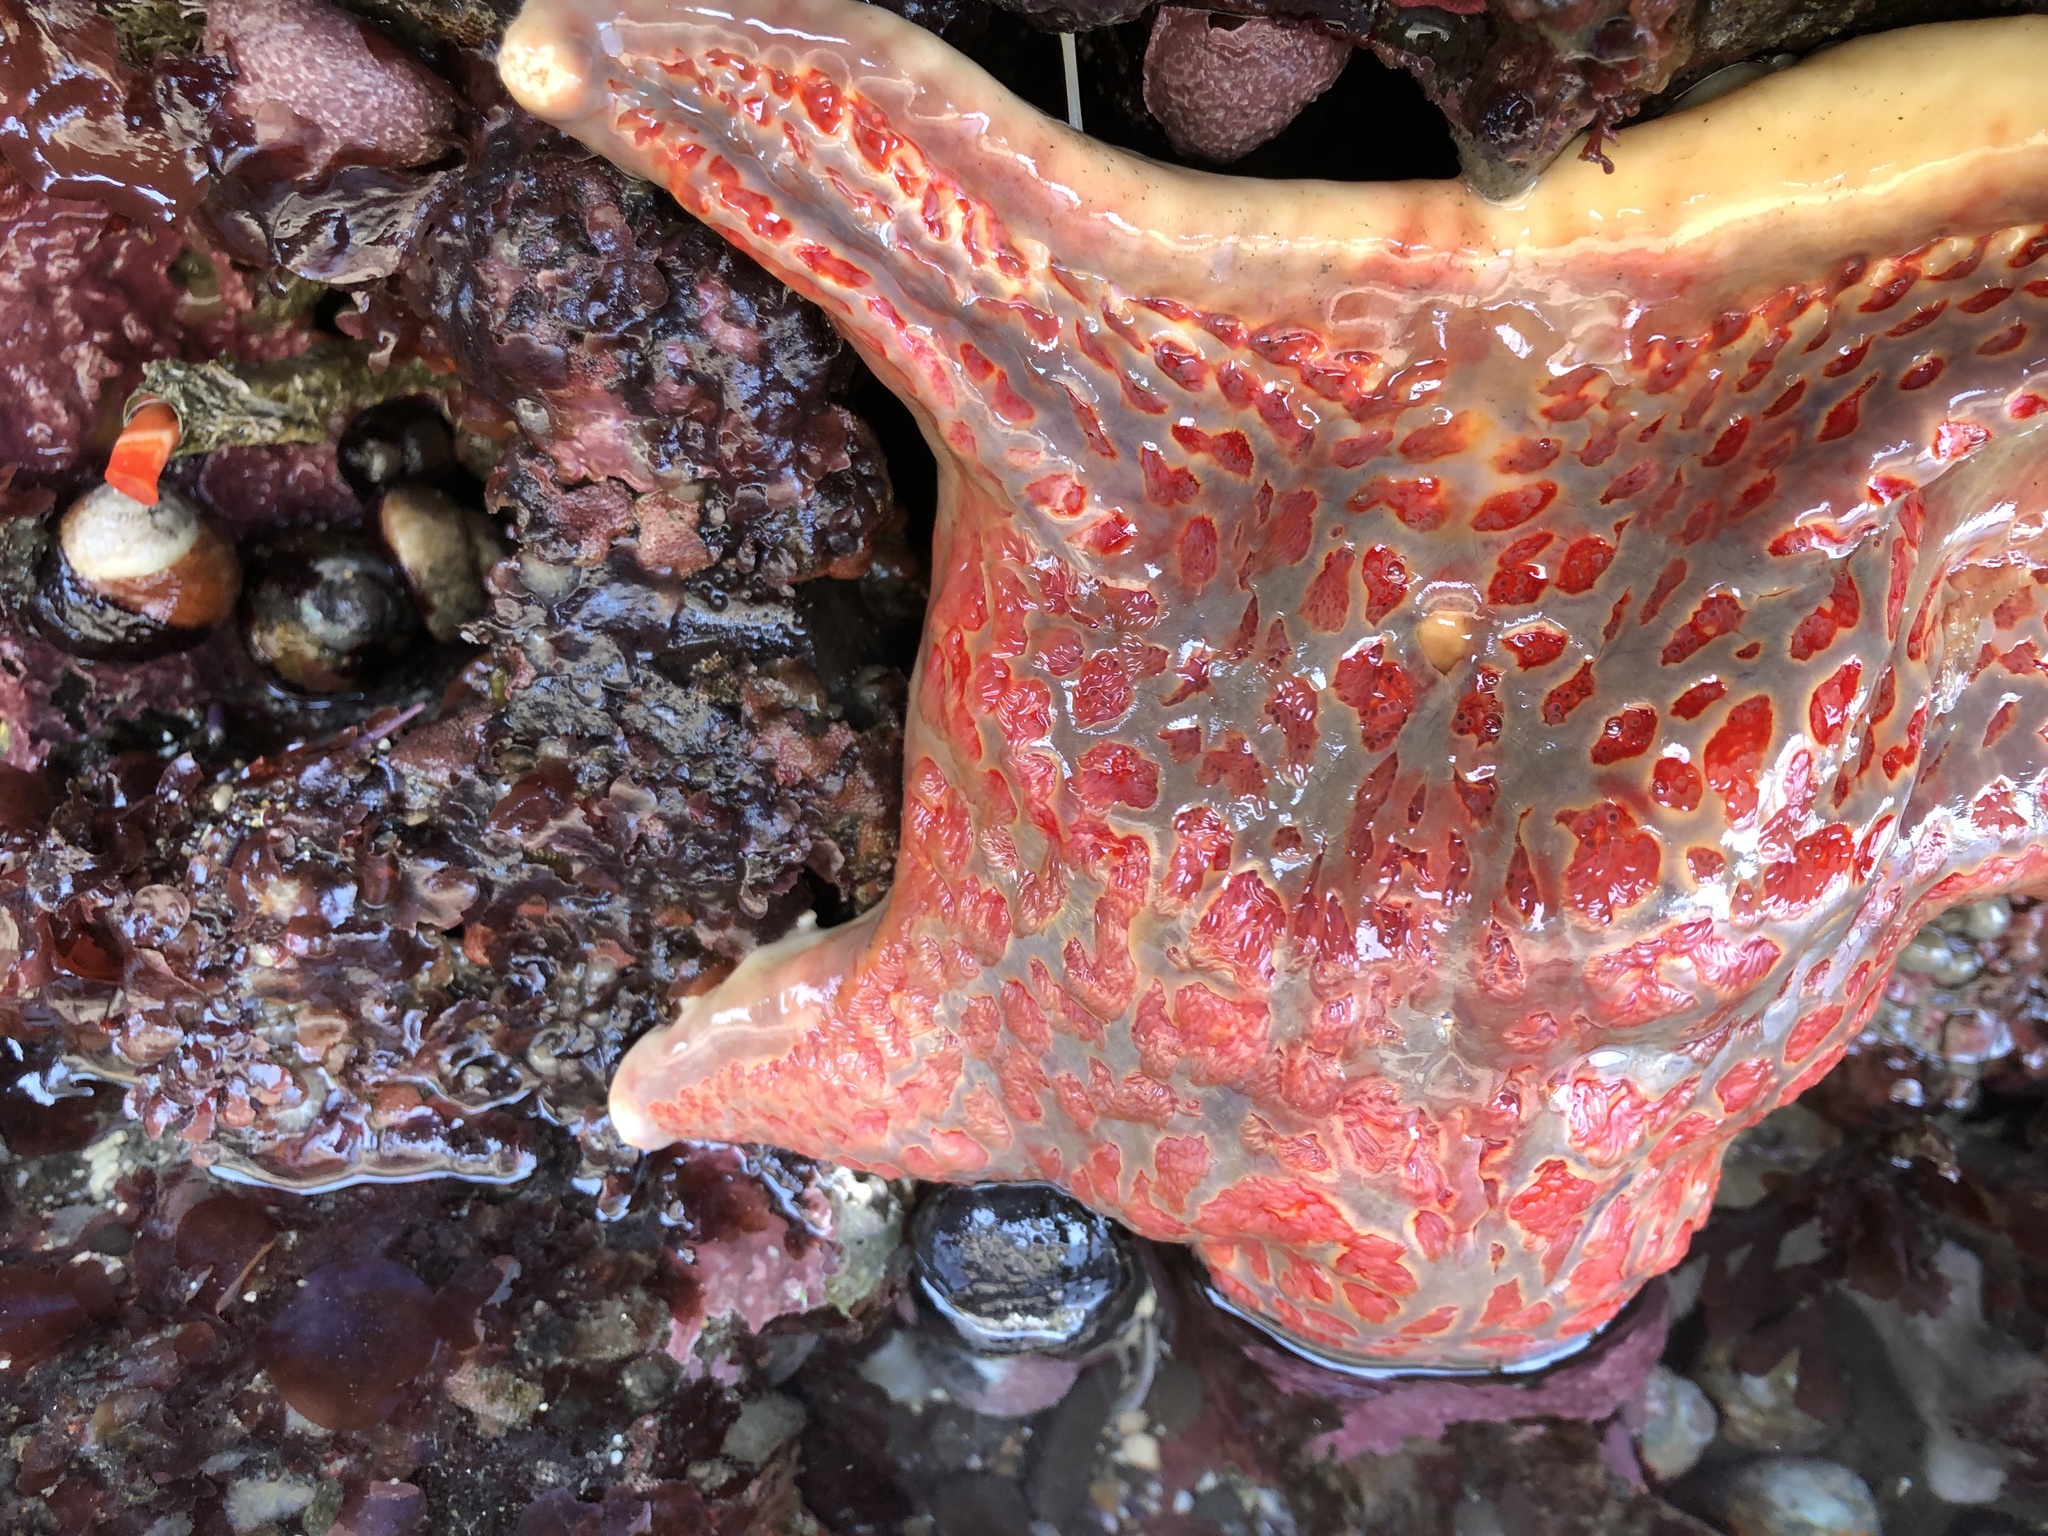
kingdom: Animalia
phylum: Echinodermata
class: Asteroidea
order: Valvatida
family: Asteropseidae
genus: Dermasterias
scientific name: Dermasterias imbricata
